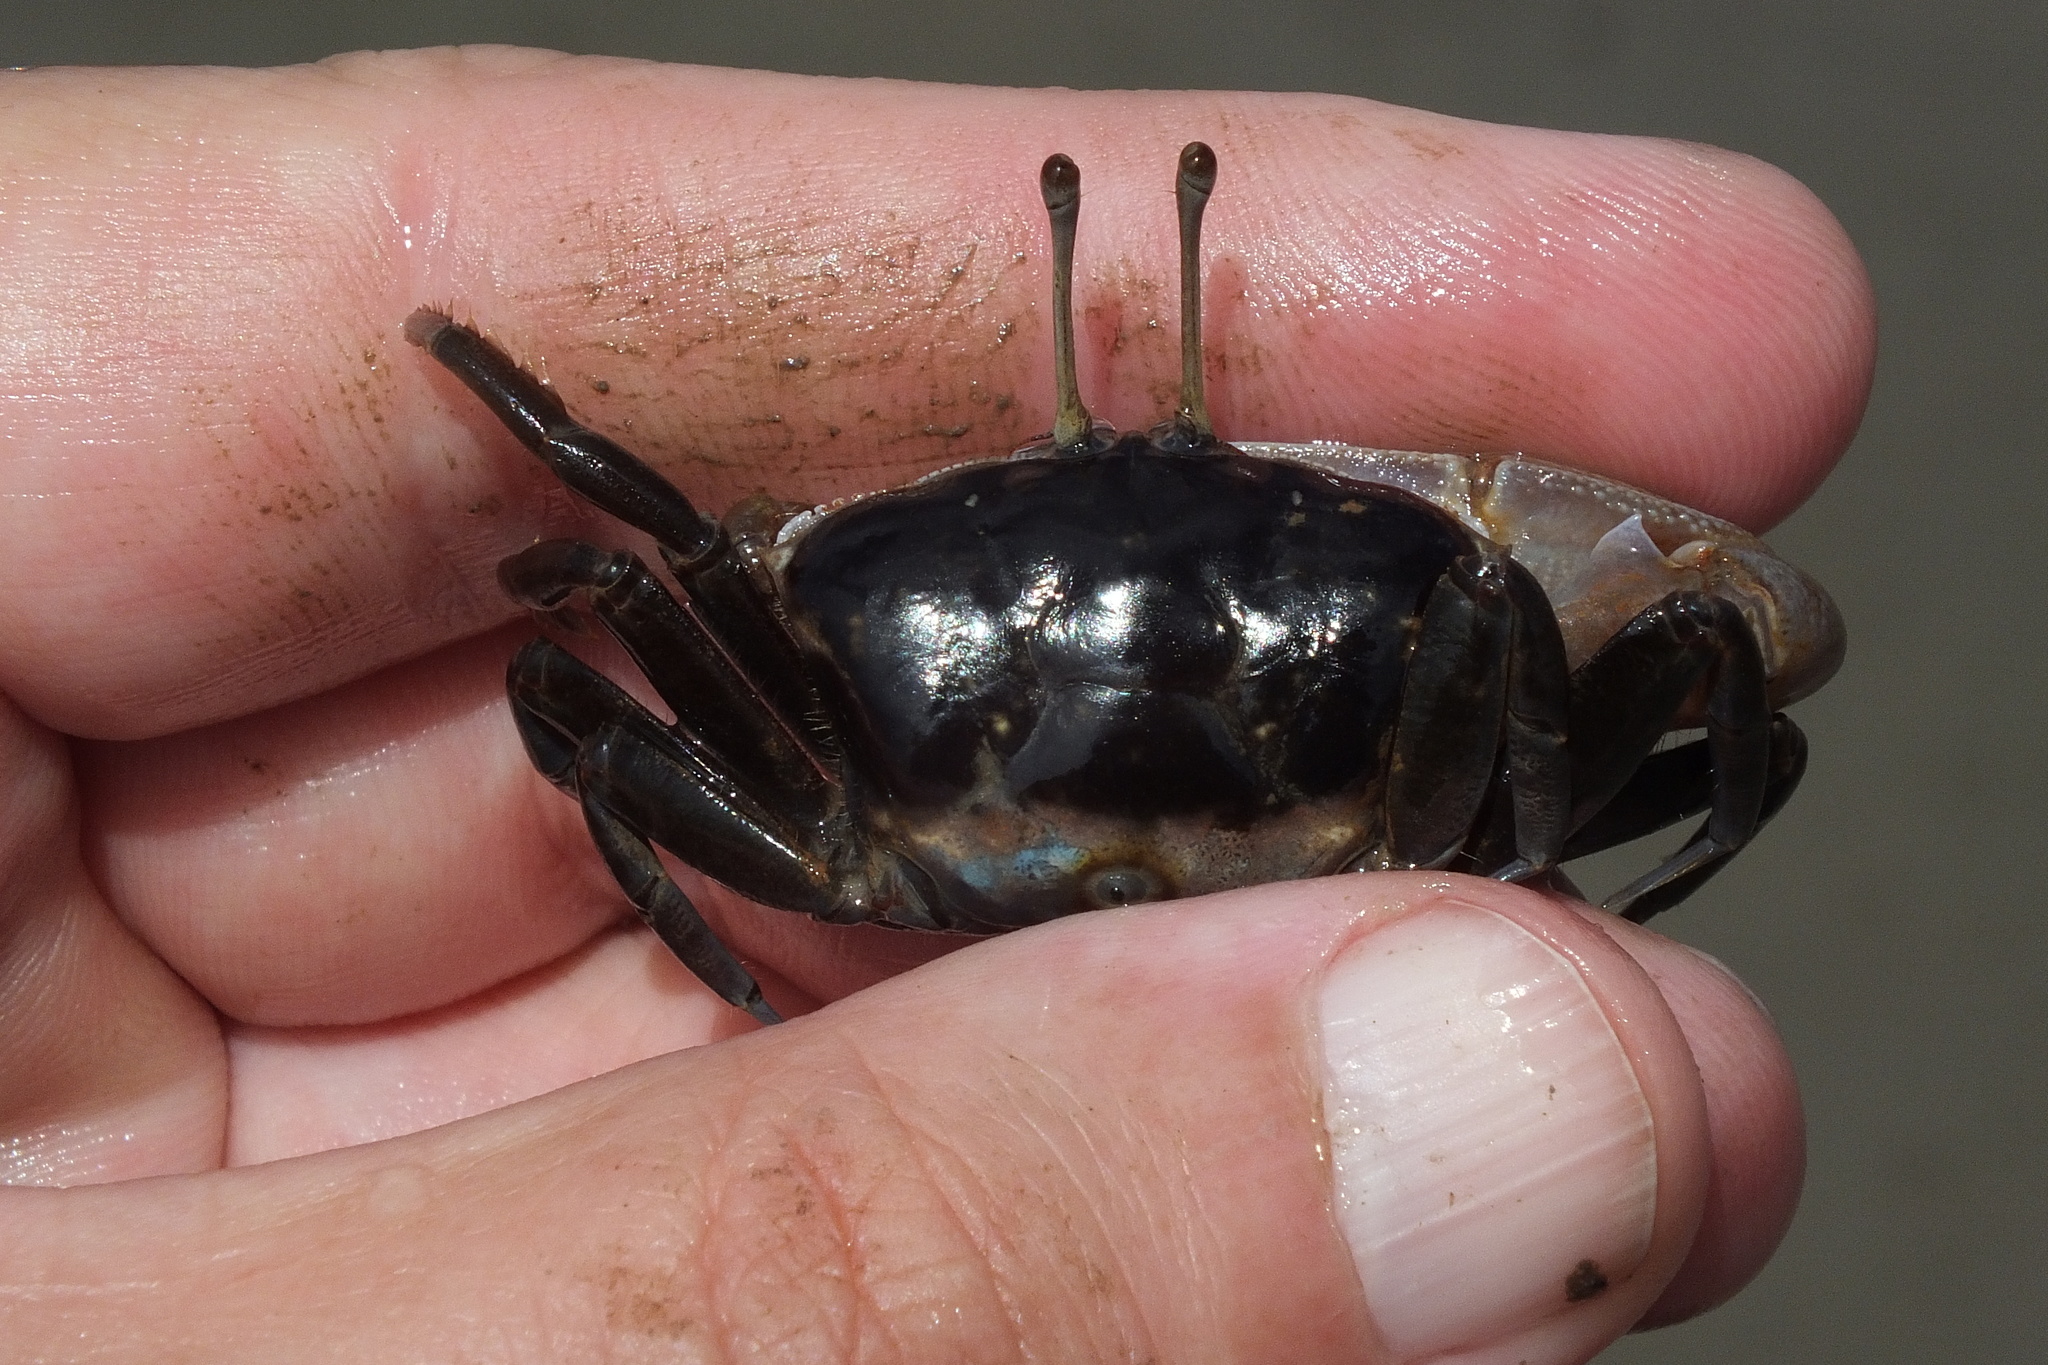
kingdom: Animalia
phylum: Arthropoda
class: Malacostraca
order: Decapoda
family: Ocypodidae
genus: Gelasimus
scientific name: Gelasimus vomeris
